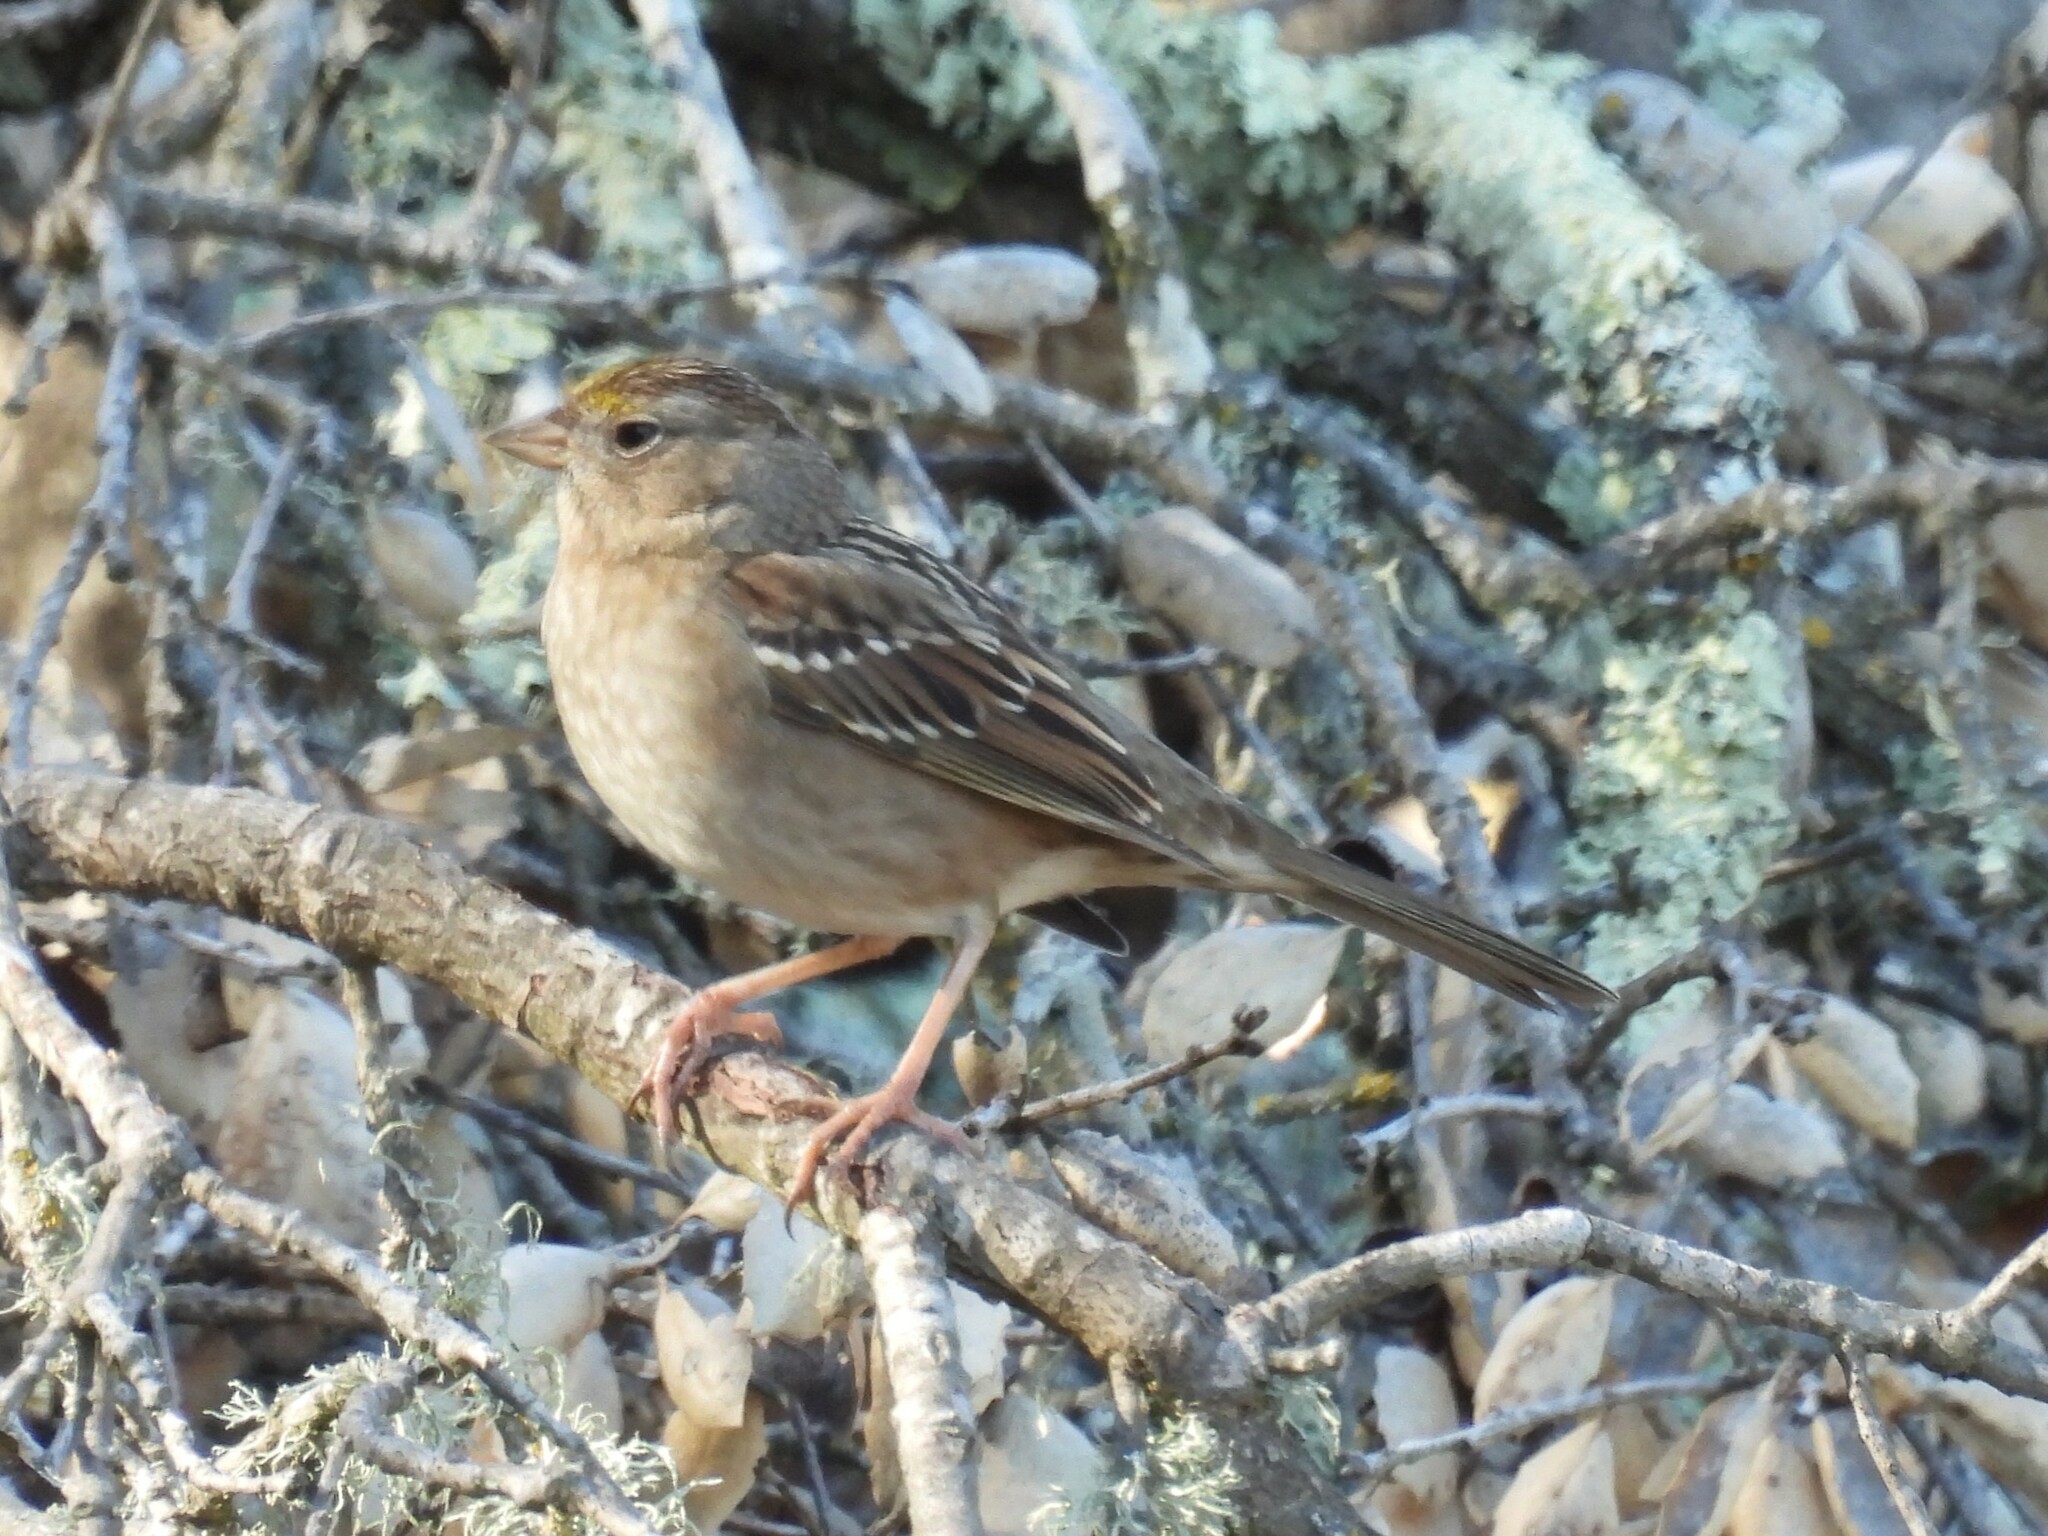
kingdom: Animalia
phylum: Chordata
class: Aves
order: Passeriformes
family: Passerellidae
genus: Zonotrichia
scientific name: Zonotrichia atricapilla
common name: Golden-crowned sparrow
